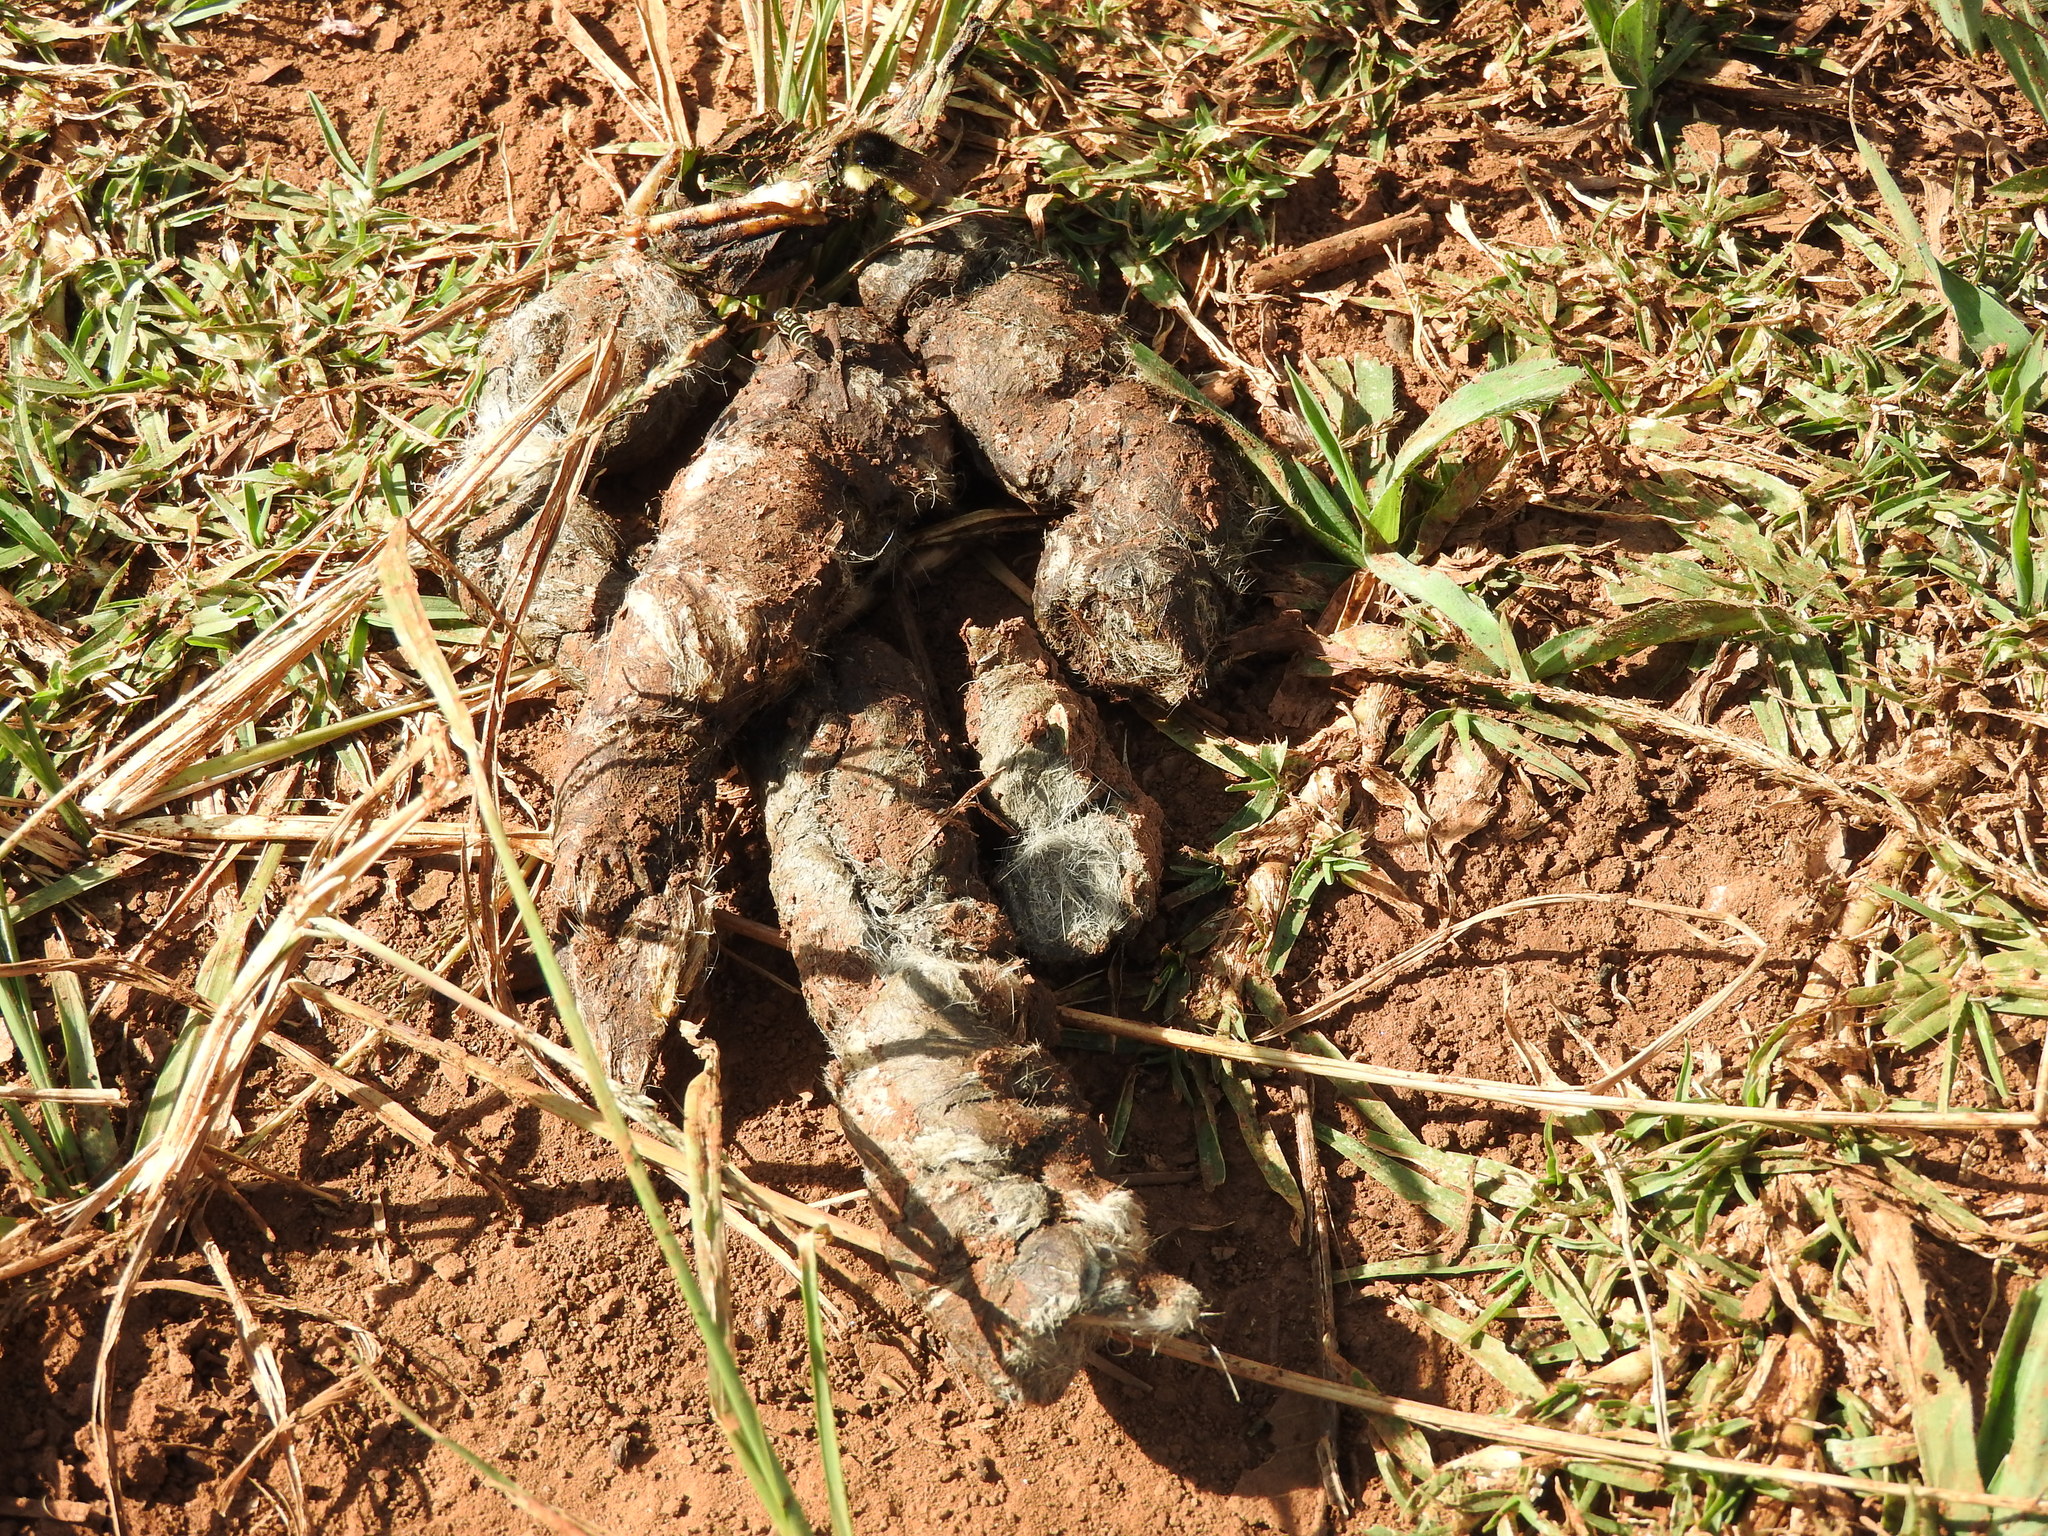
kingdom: Animalia
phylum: Chordata
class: Mammalia
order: Carnivora
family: Canidae
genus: Canis
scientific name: Canis latrans
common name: Coyote
